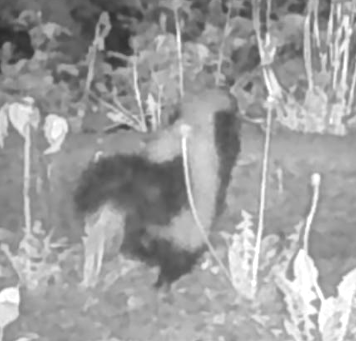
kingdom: Animalia
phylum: Chordata
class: Mammalia
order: Carnivora
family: Mephitidae
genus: Mephitis
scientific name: Mephitis mephitis
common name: Striped skunk
